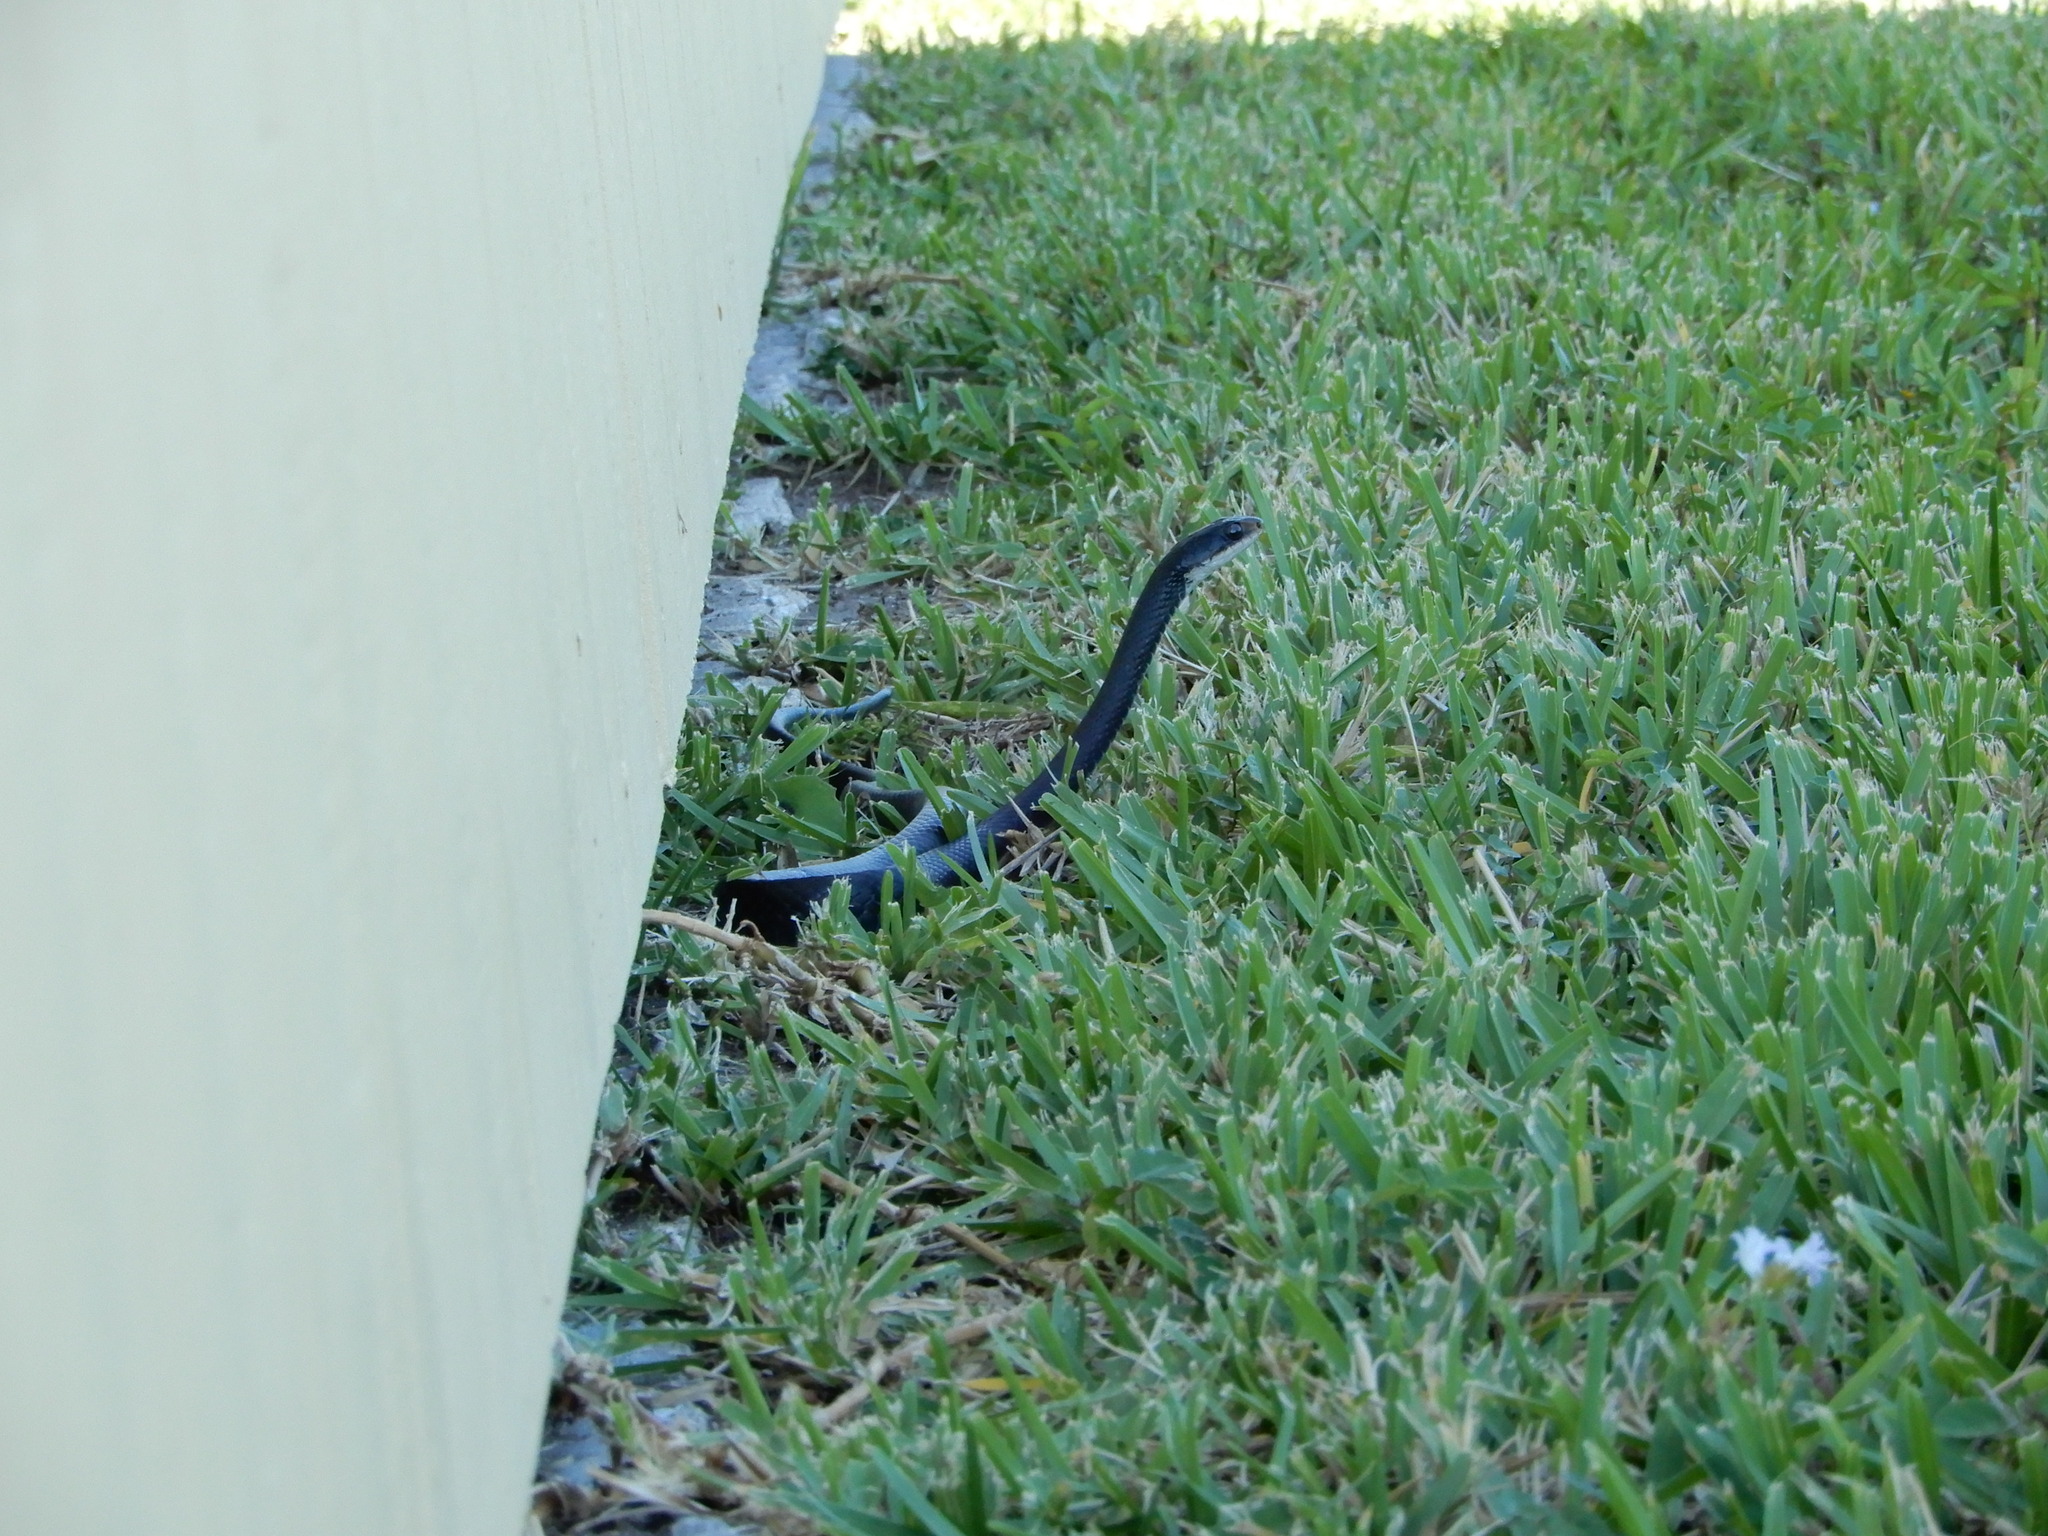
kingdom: Animalia
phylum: Chordata
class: Squamata
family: Colubridae
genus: Coluber
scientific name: Coluber constrictor
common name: Eastern racer
